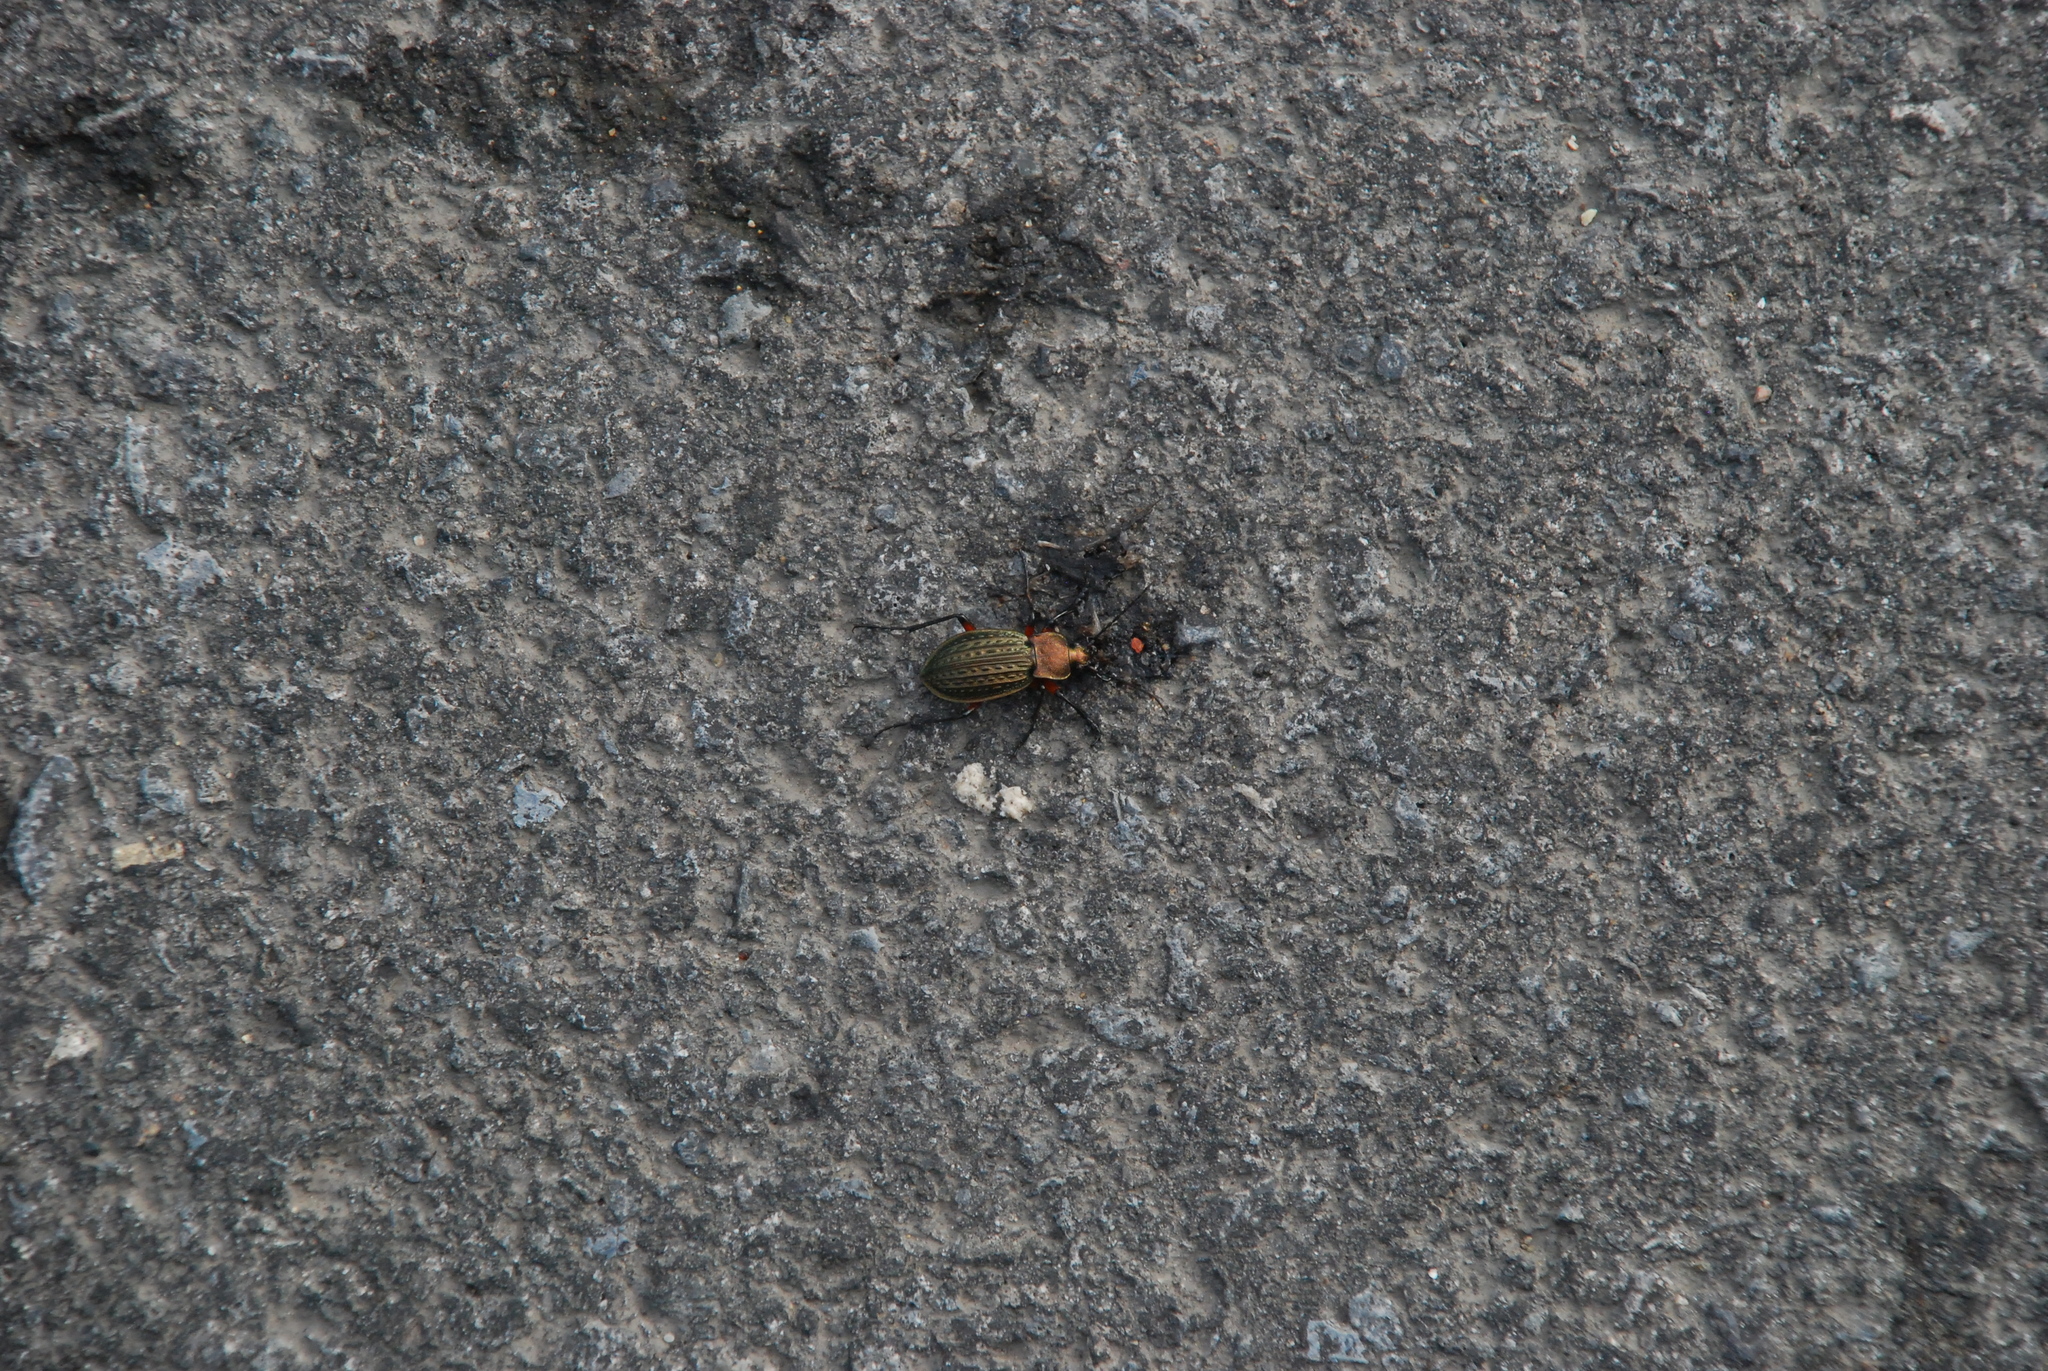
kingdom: Animalia
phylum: Arthropoda
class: Insecta
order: Coleoptera
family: Carabidae
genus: Carabus
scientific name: Carabus cancellatus
